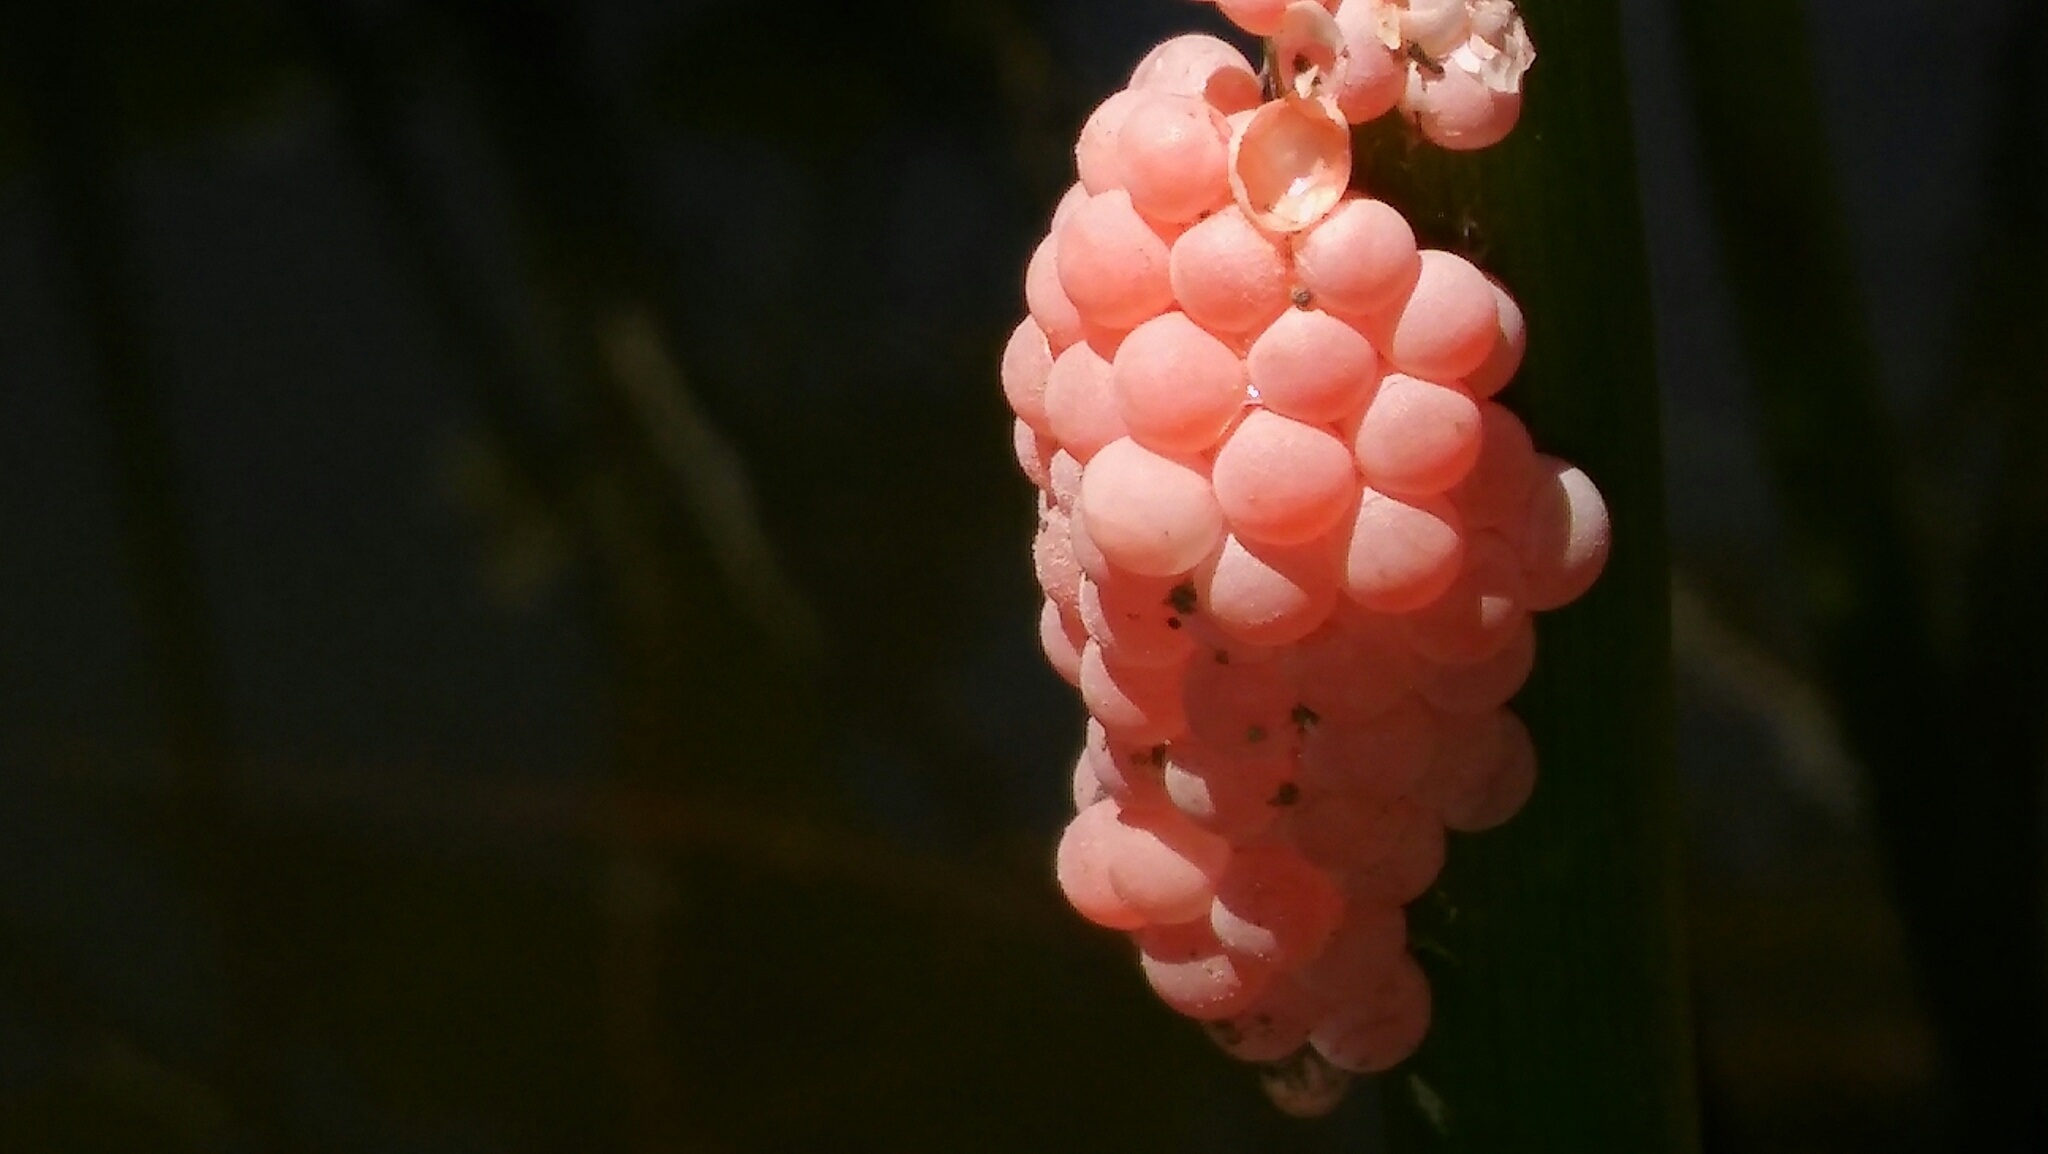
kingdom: Animalia
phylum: Mollusca
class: Gastropoda
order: Architaenioglossa
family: Ampullariidae
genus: Pomacea
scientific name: Pomacea canaliculata
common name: Channeled applesnail
